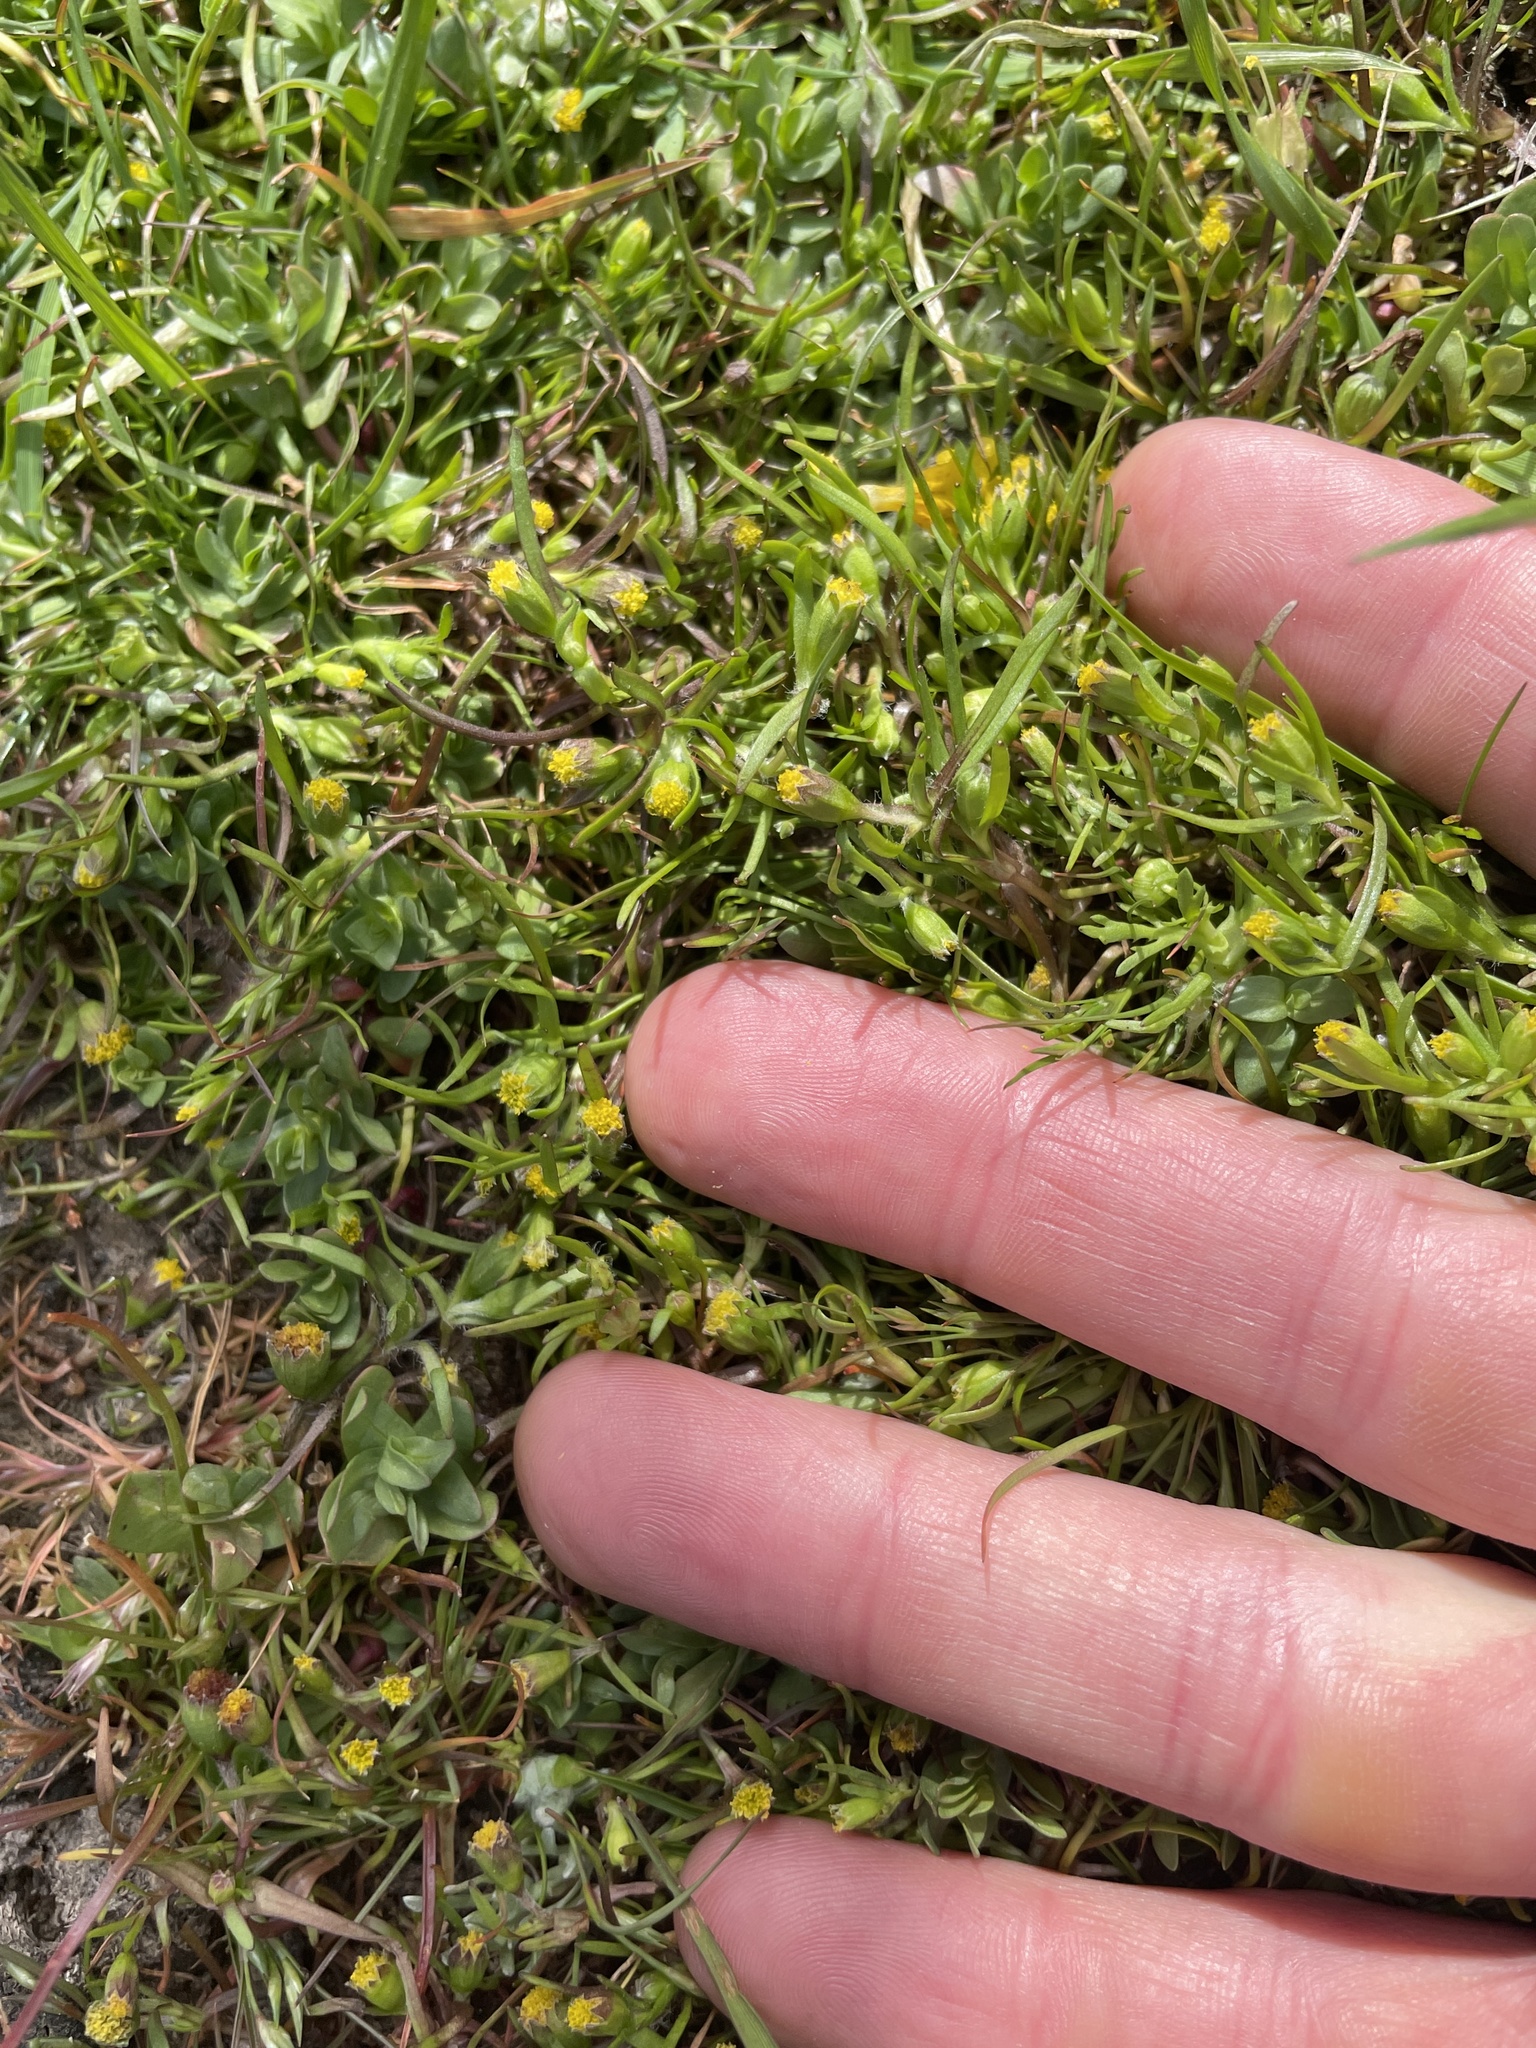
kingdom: Plantae
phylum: Tracheophyta
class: Magnoliopsida
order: Asterales
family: Asteraceae
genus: Lasthenia
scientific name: Lasthenia glaberrima
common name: Smooth goldfields
